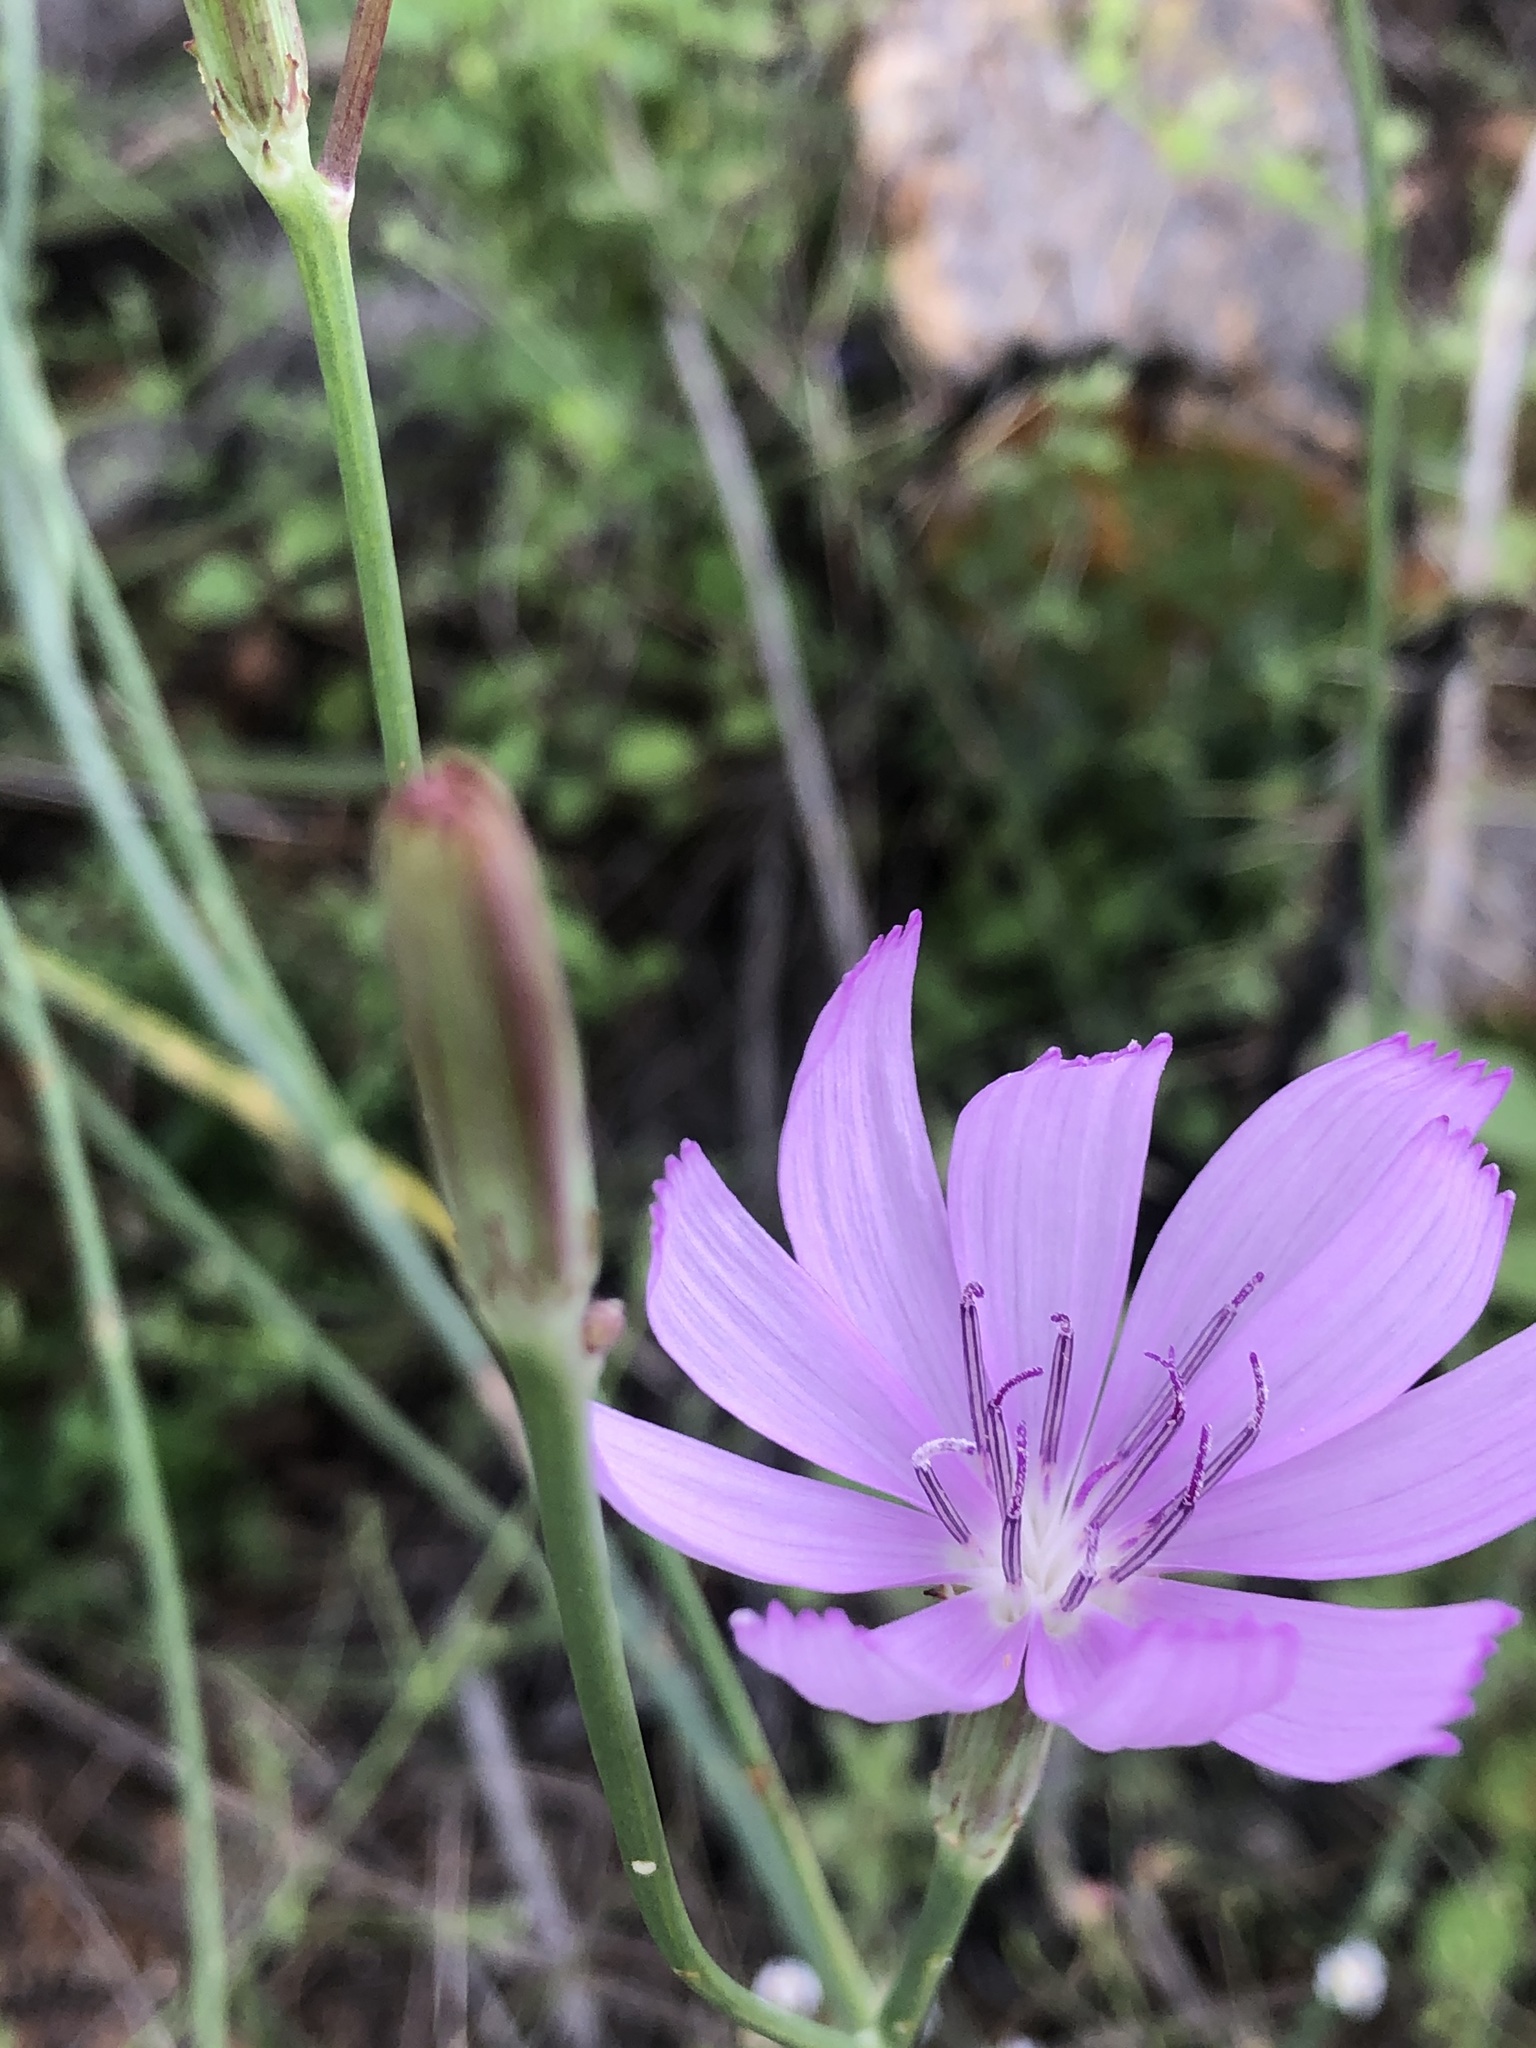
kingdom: Plantae
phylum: Tracheophyta
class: Magnoliopsida
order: Asterales
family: Asteraceae
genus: Lygodesmia
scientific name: Lygodesmia texana
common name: Texas skeleton-plant
